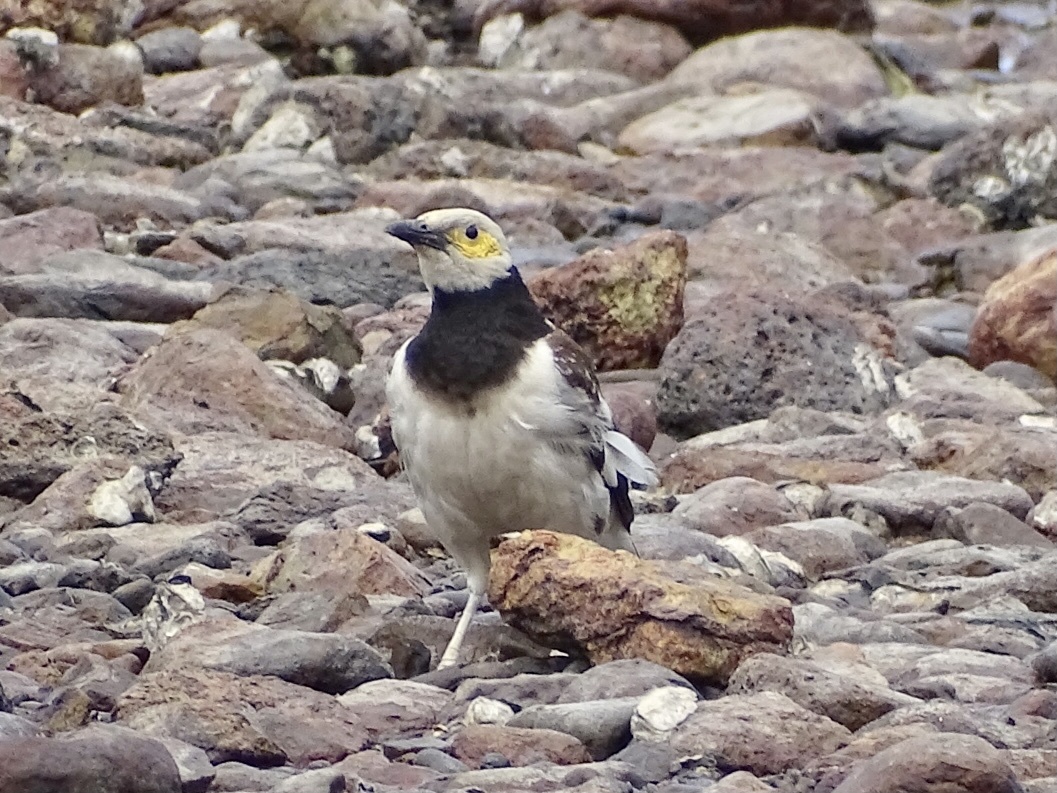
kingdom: Animalia
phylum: Chordata
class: Aves
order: Passeriformes
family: Sturnidae
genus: Gracupica
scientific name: Gracupica nigricollis
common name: Black-collared starling
